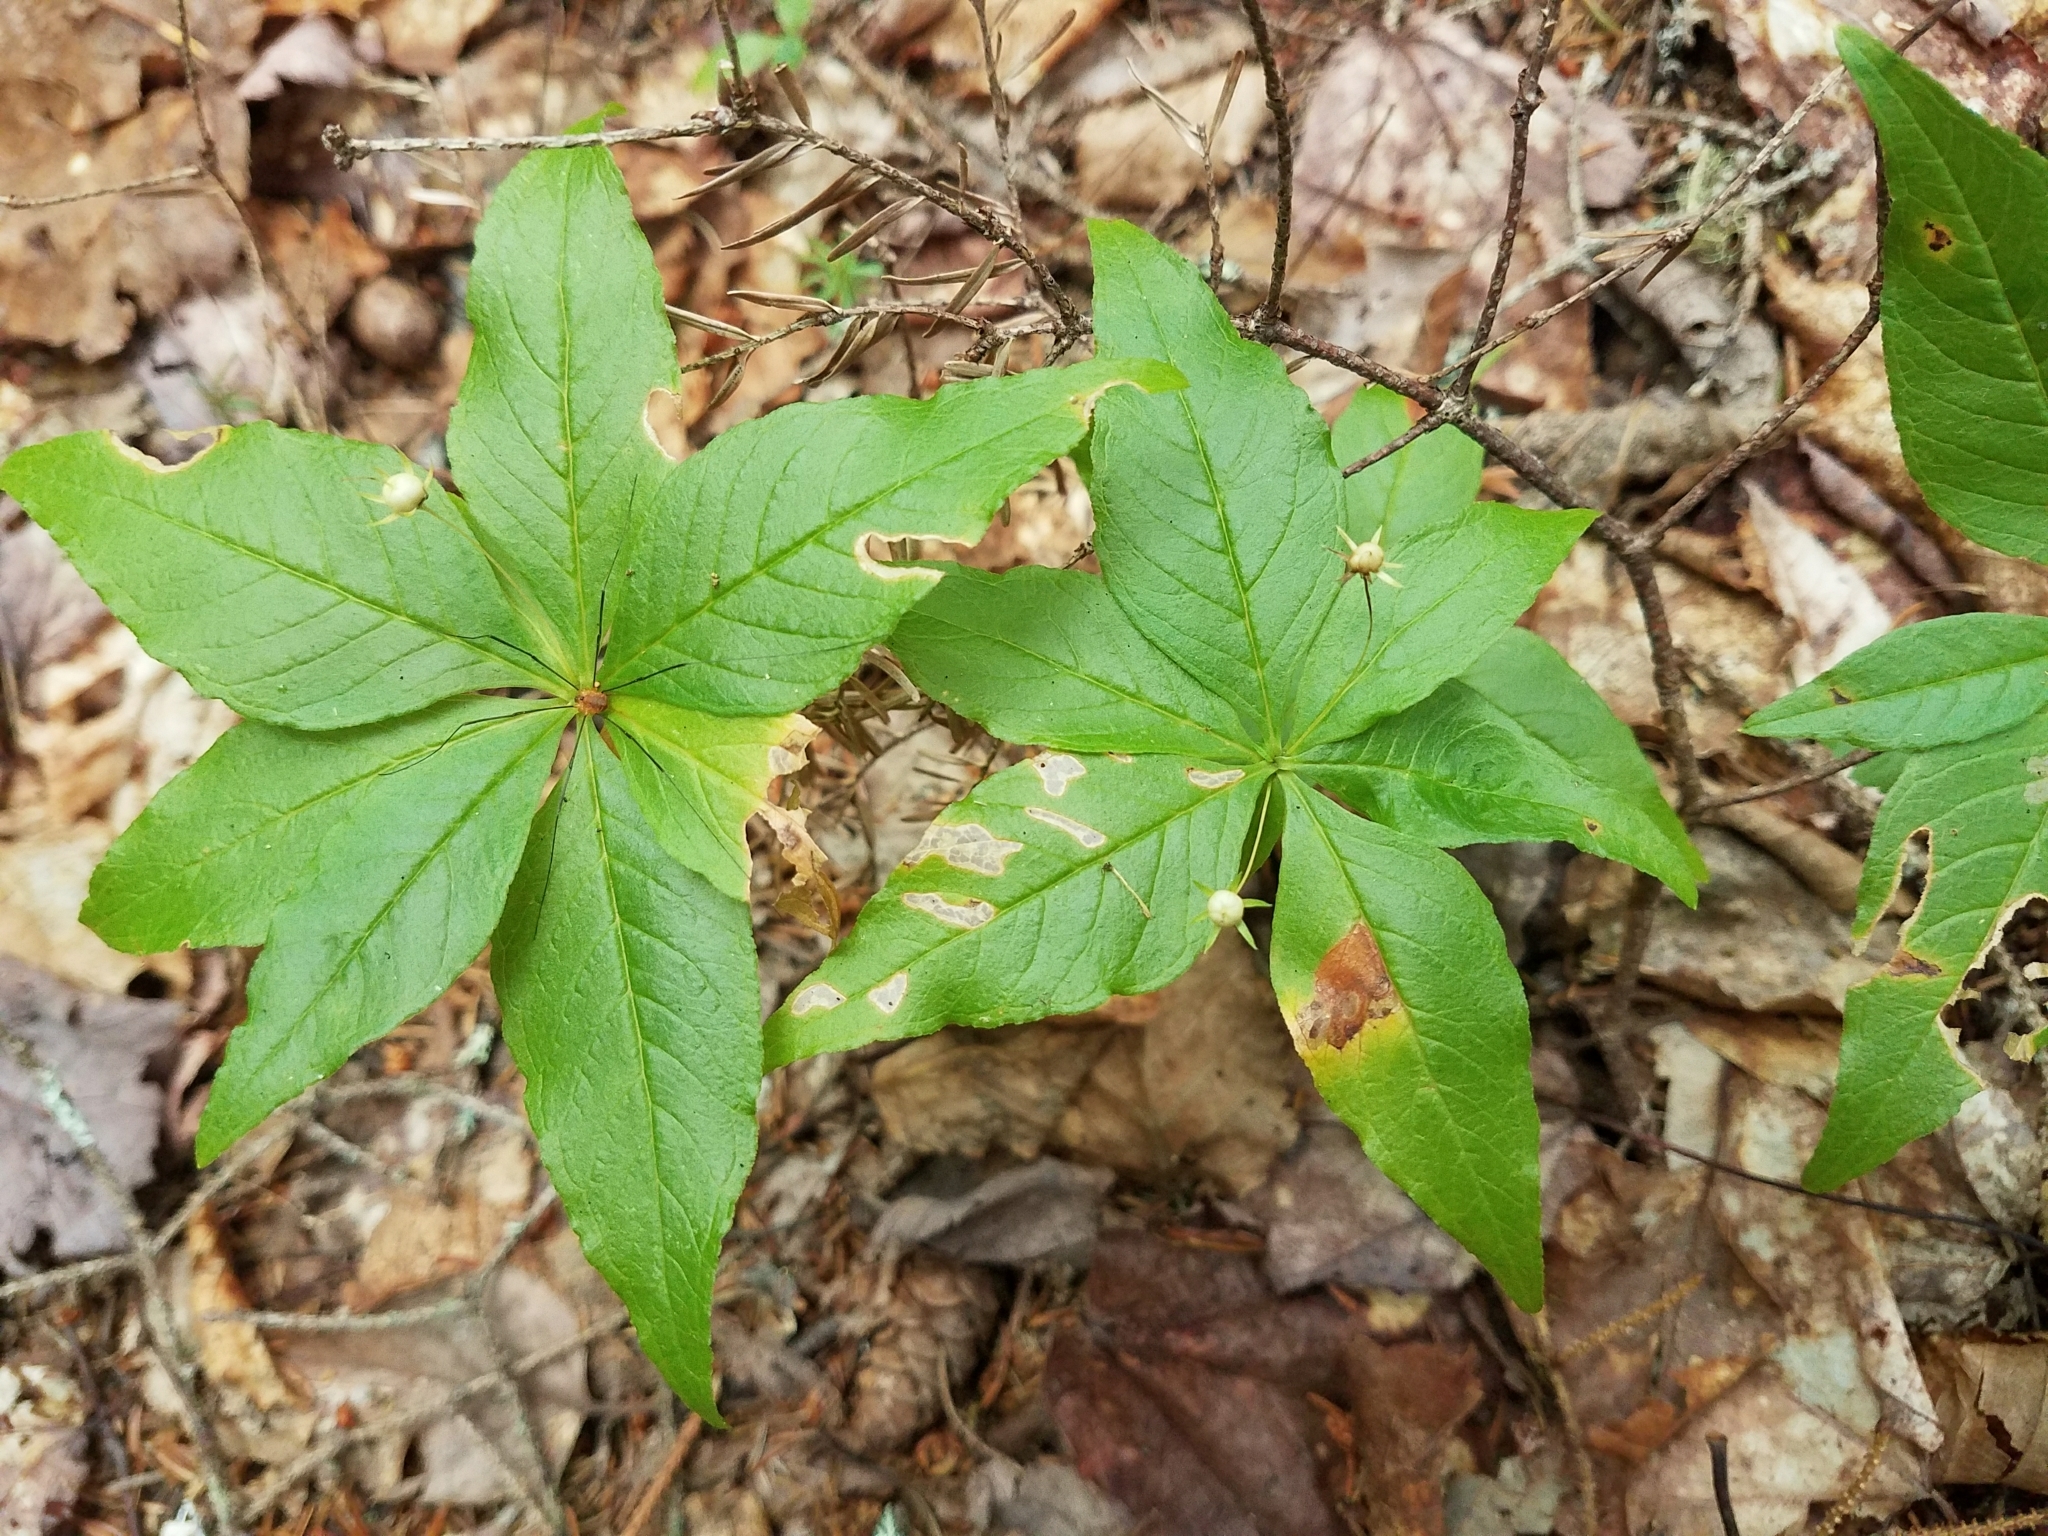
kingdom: Plantae
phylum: Tracheophyta
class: Magnoliopsida
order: Ericales
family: Primulaceae
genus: Lysimachia
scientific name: Lysimachia borealis
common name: American starflower
